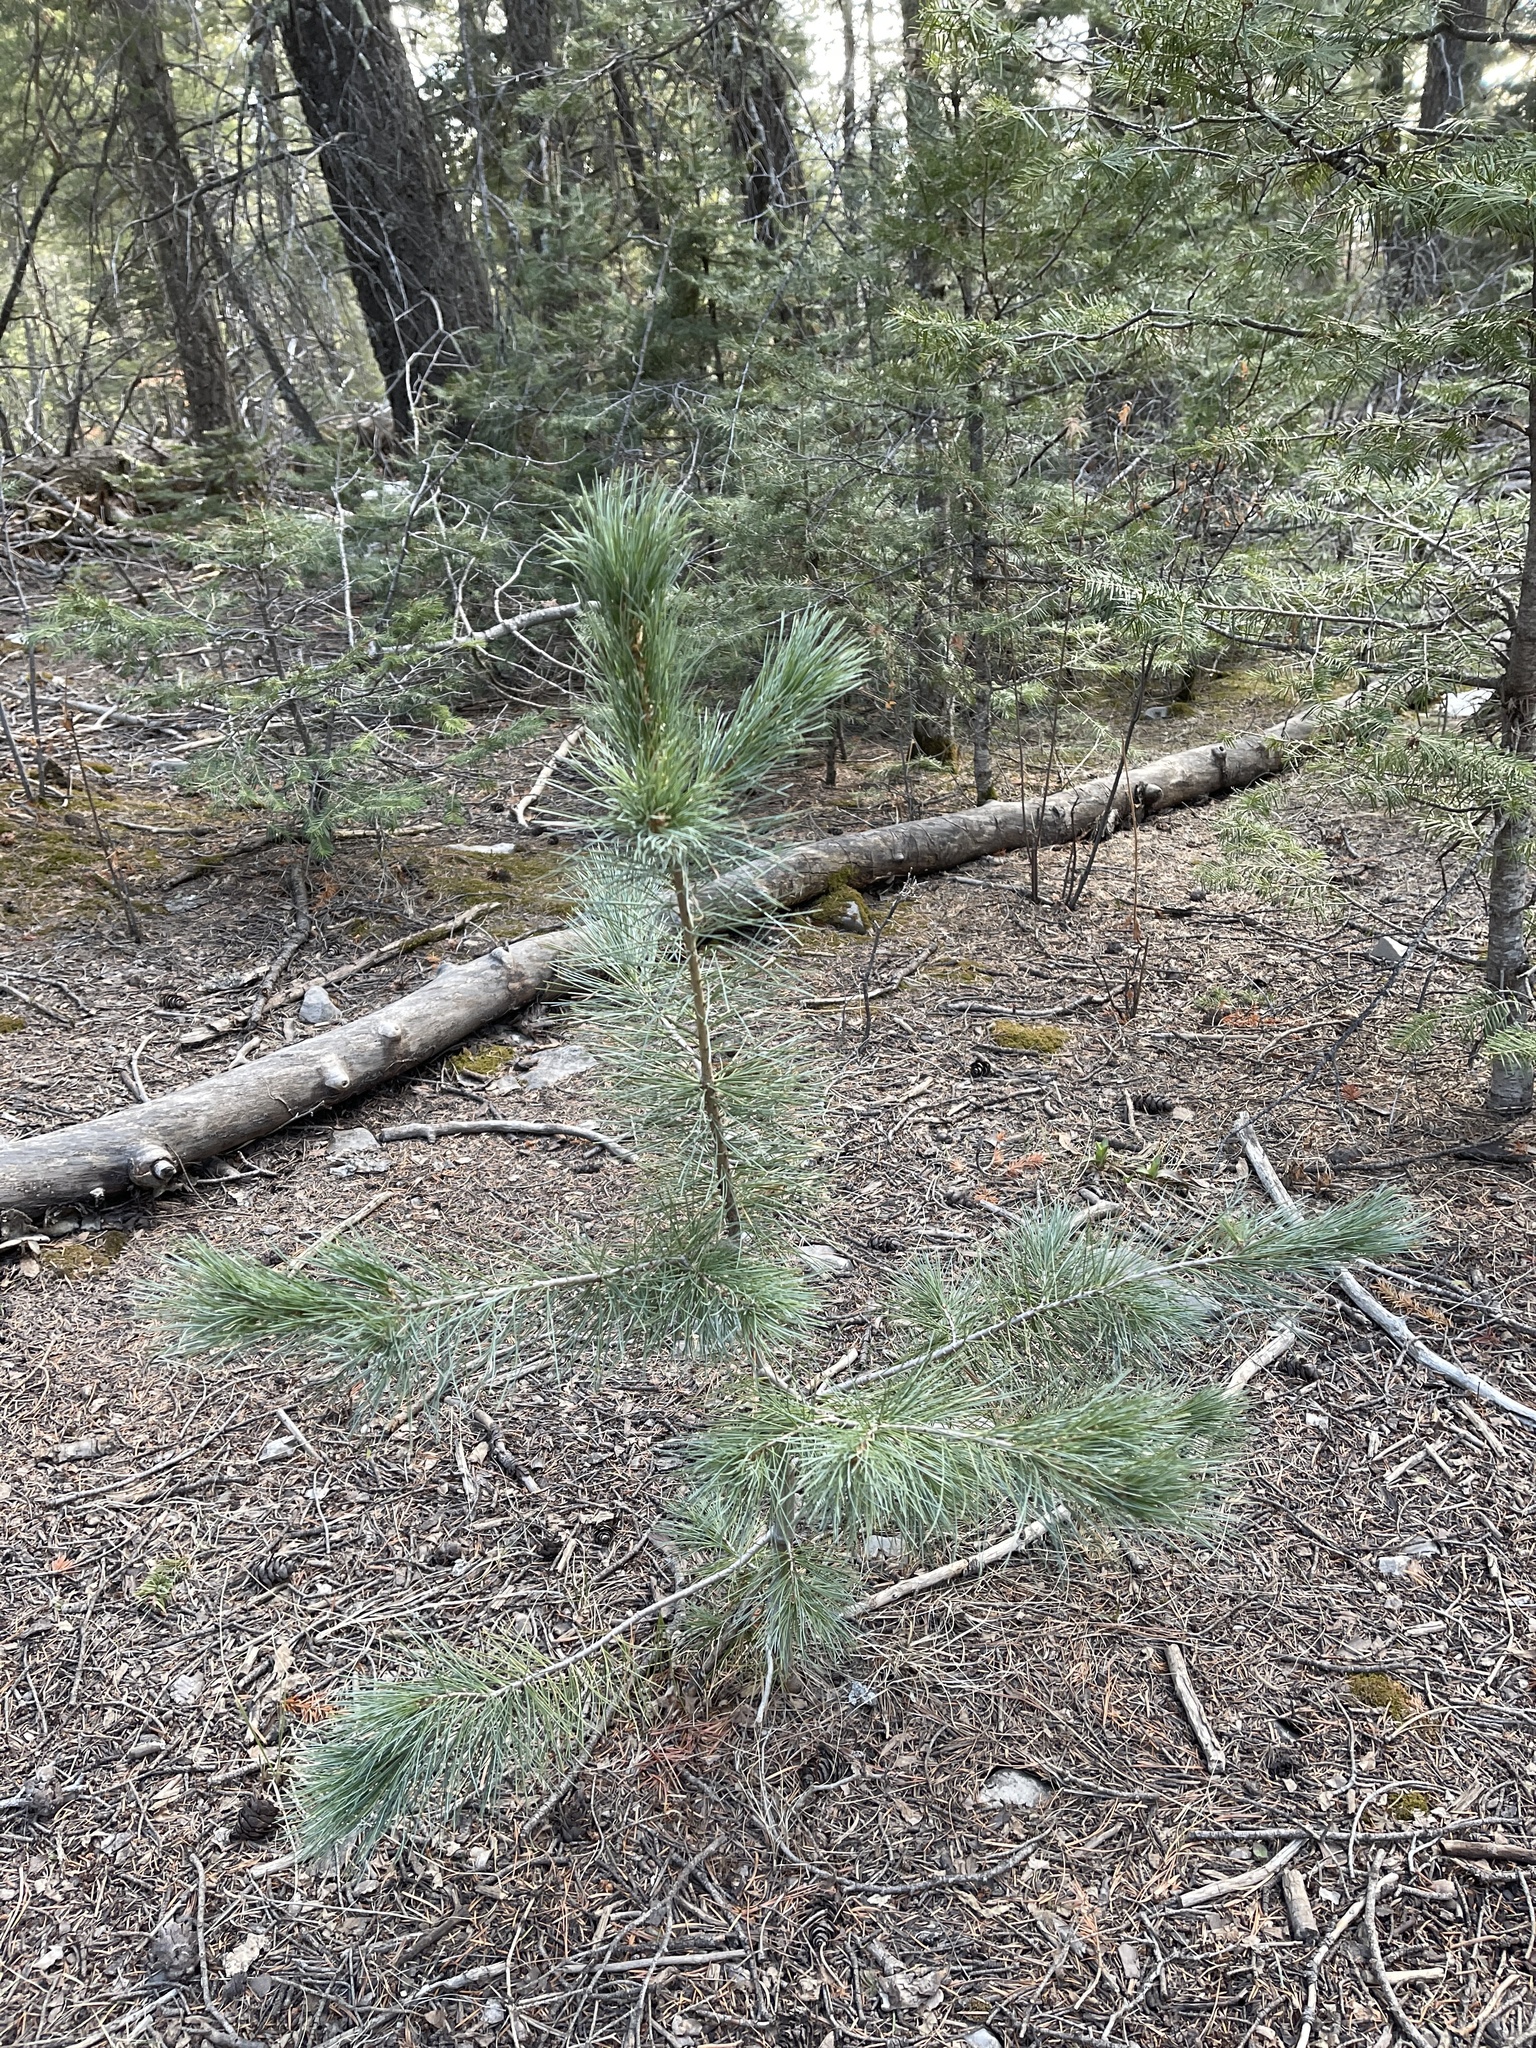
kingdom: Plantae
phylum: Tracheophyta
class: Pinopsida
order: Pinales
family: Pinaceae
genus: Pinus
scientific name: Pinus strobiformis
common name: Southwestern white pine
